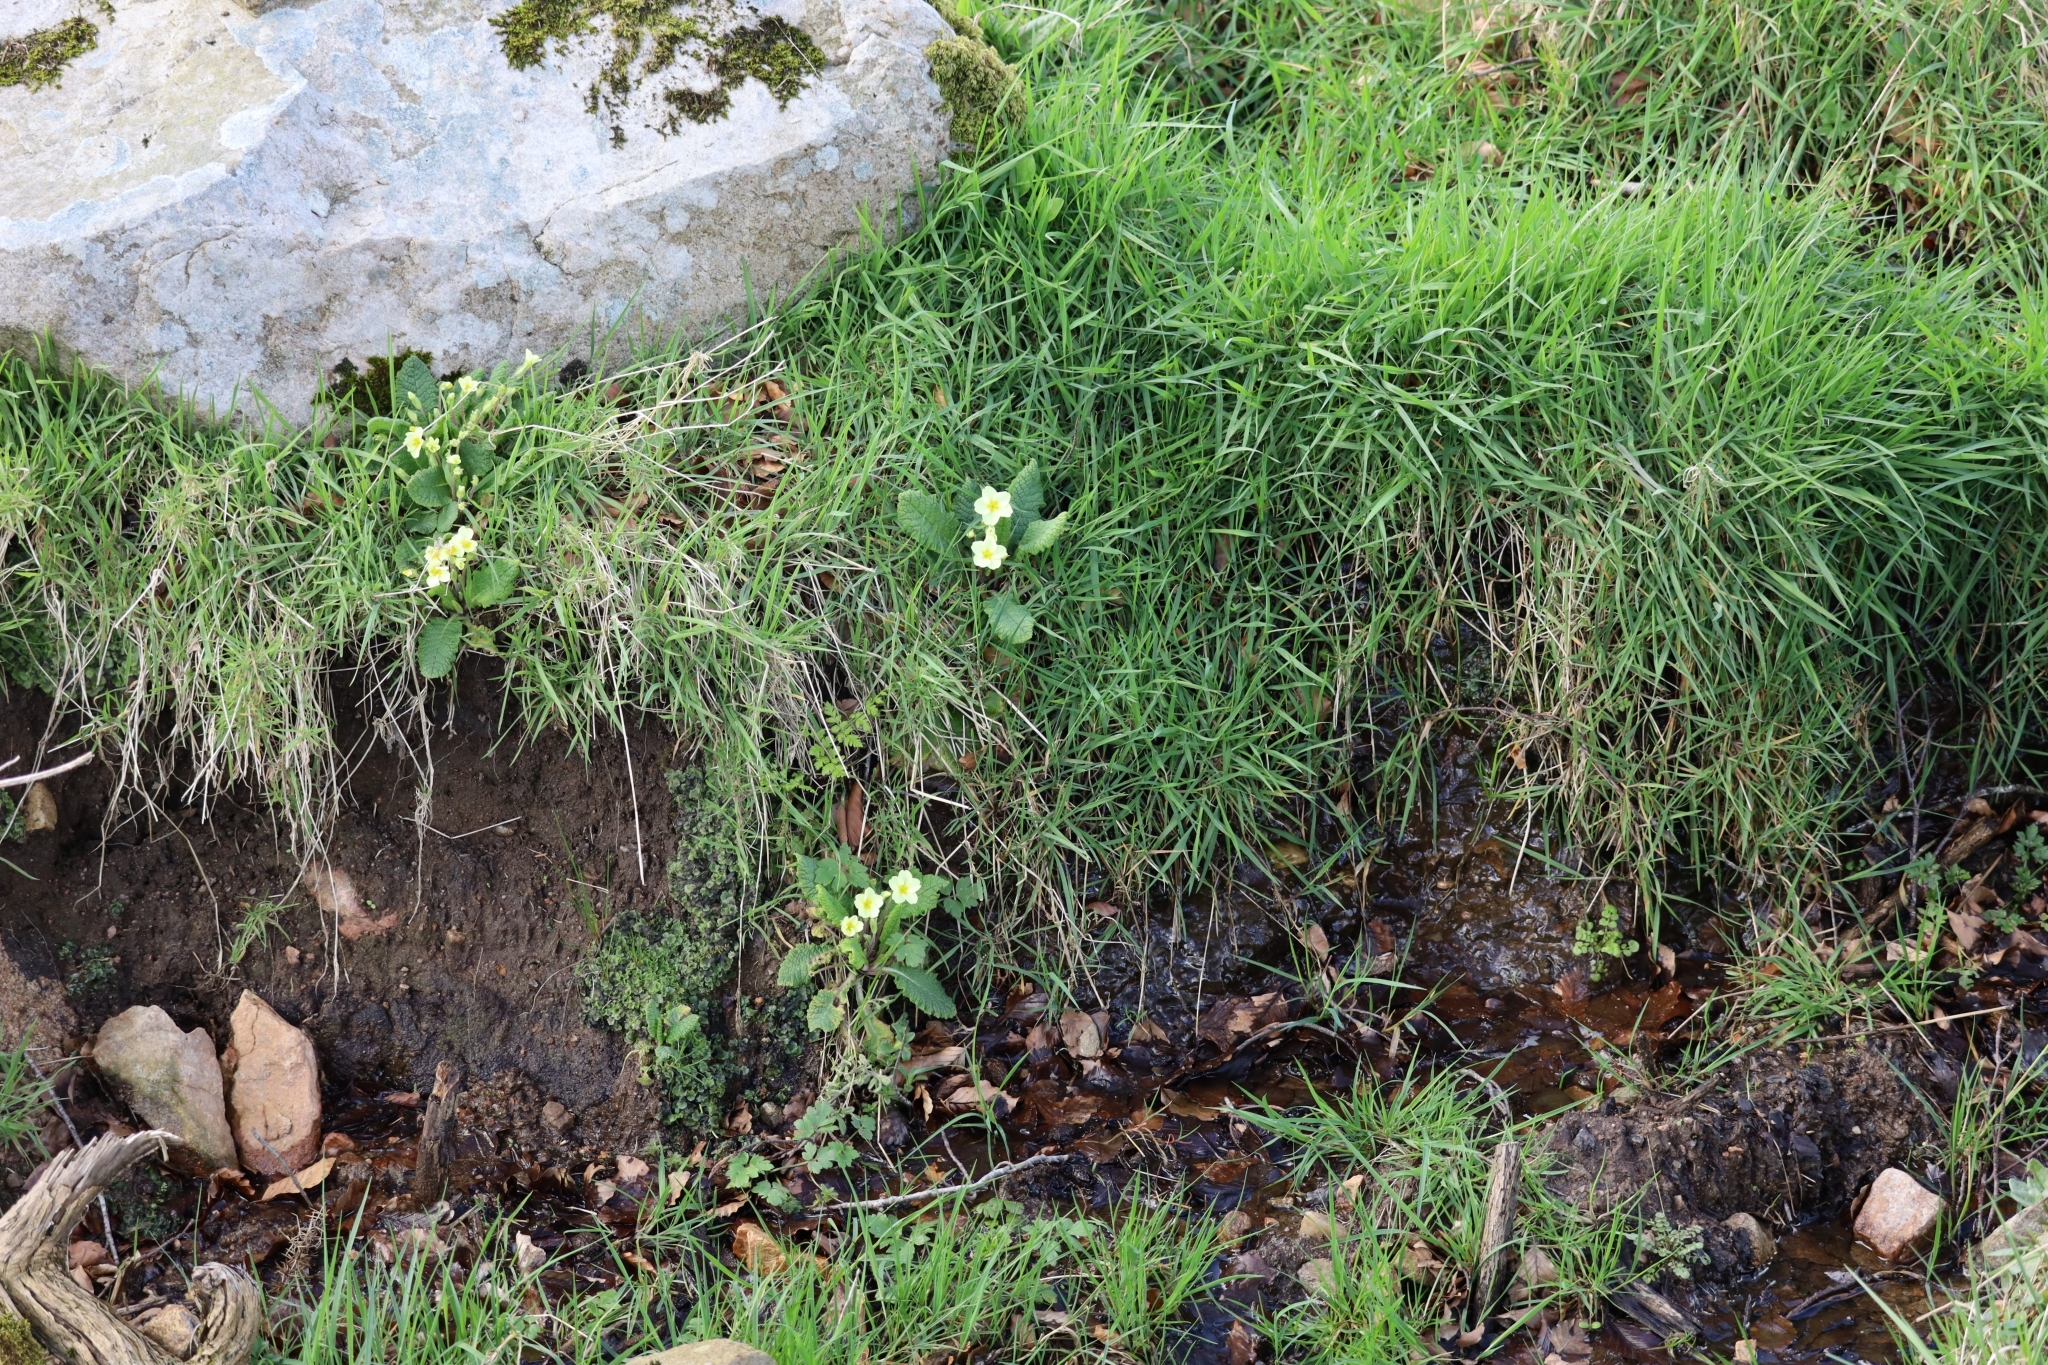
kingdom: Plantae
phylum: Tracheophyta
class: Magnoliopsida
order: Ericales
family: Primulaceae
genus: Primula
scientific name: Primula vulgaris
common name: Primrose
